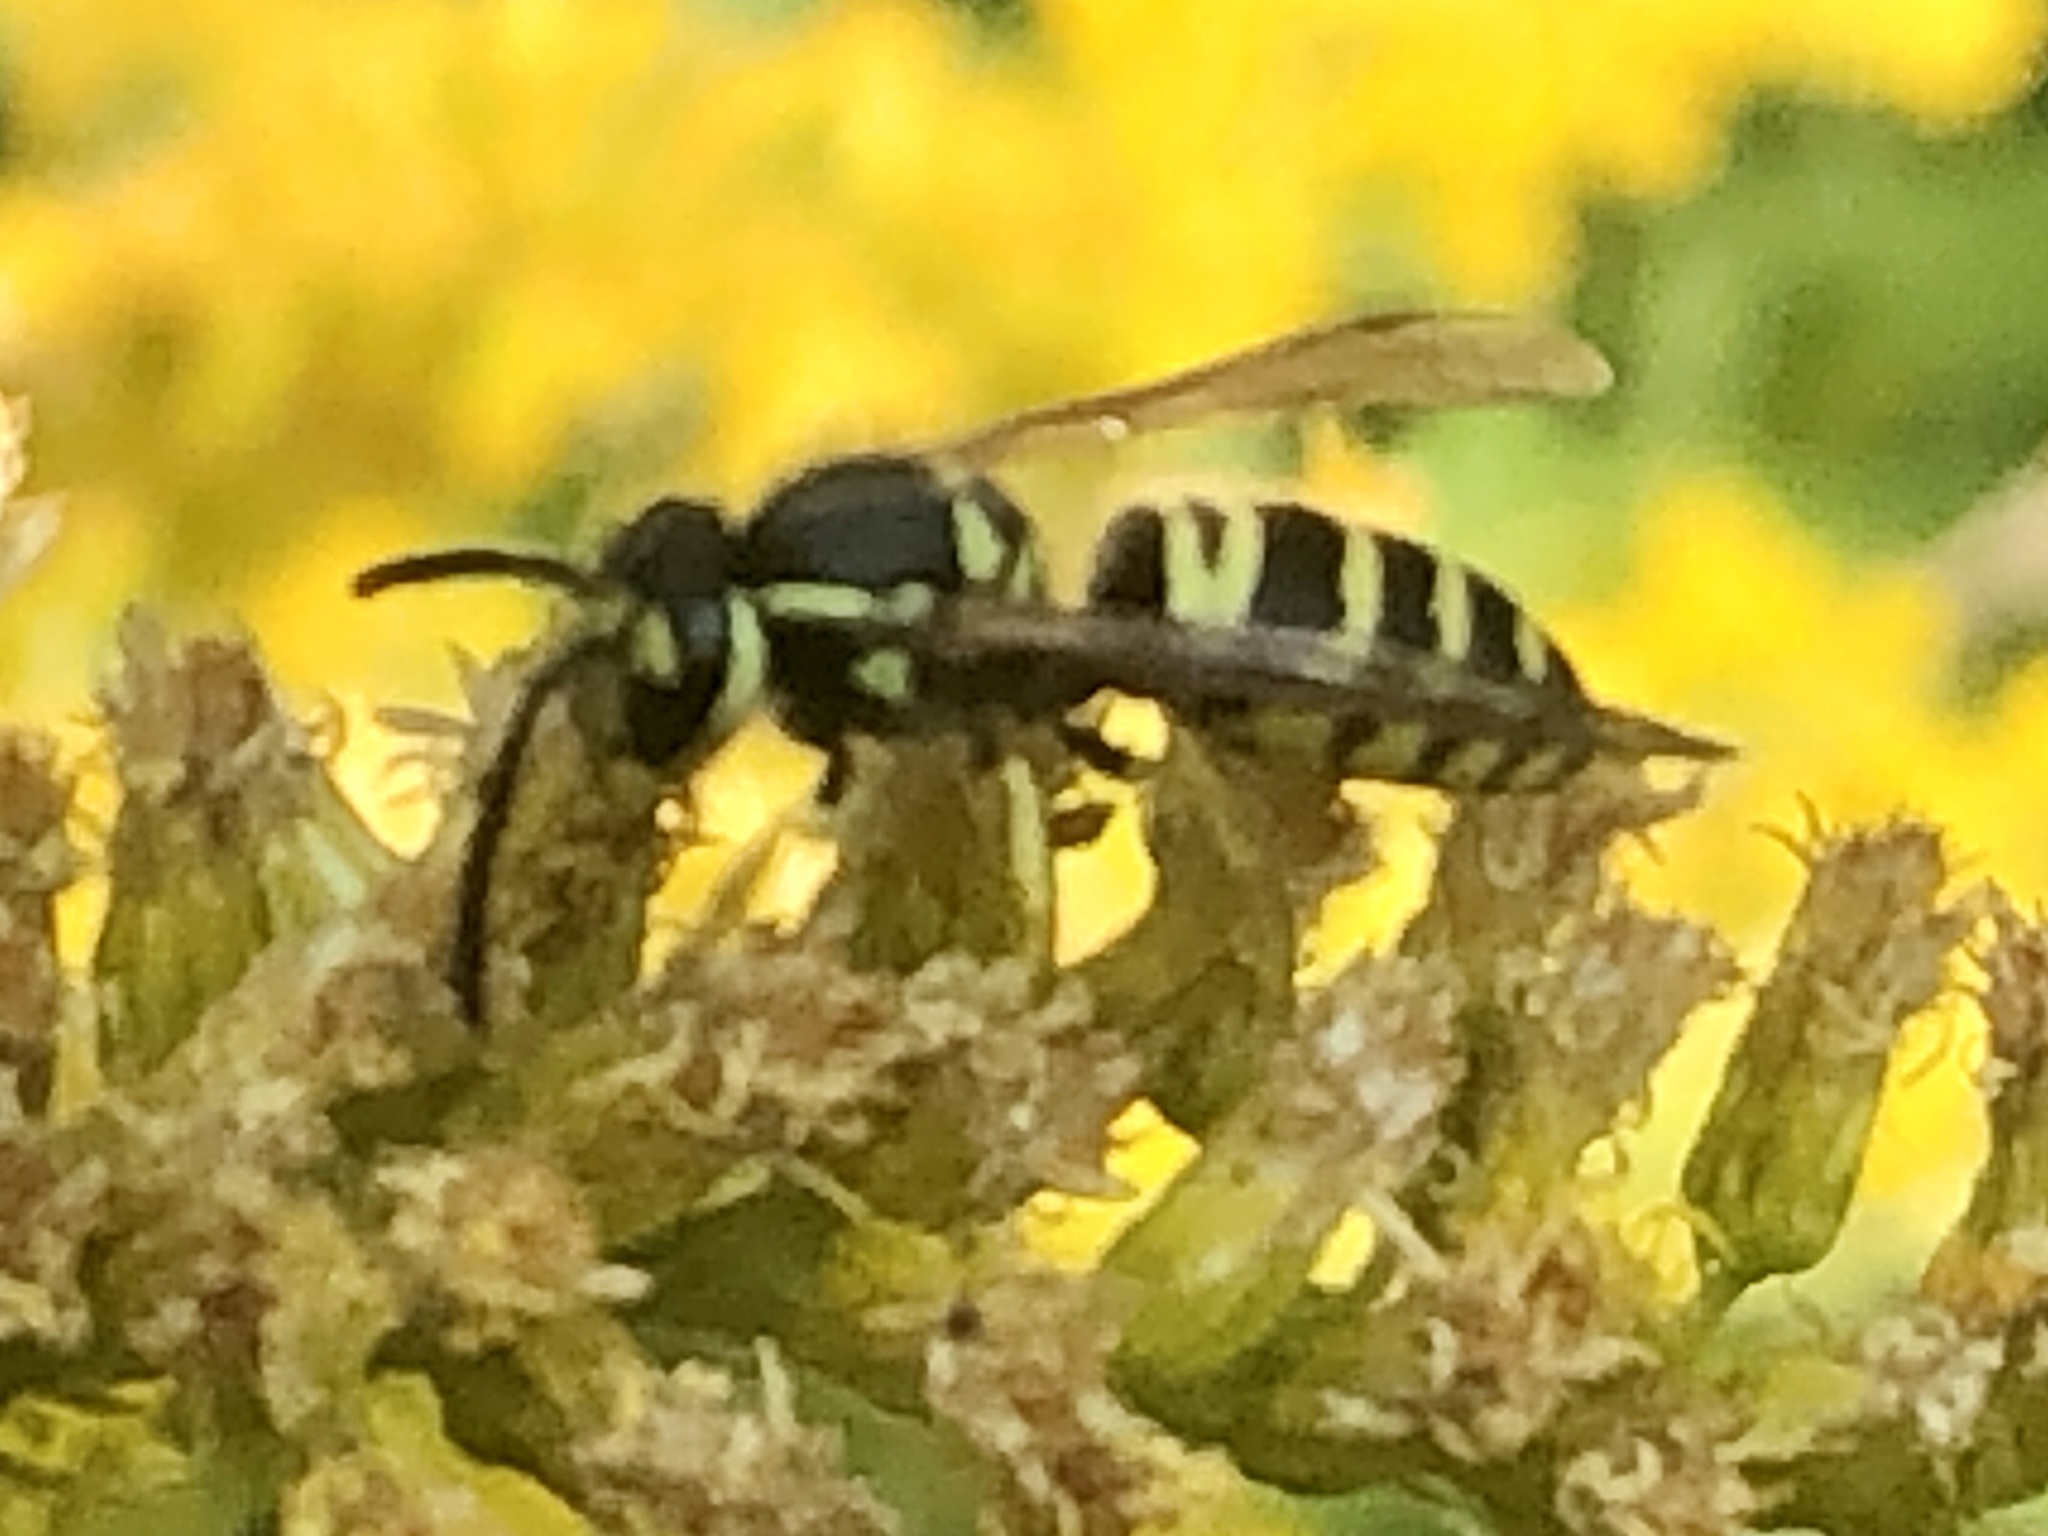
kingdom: Animalia
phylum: Arthropoda
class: Insecta
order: Hymenoptera
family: Vespidae
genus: Vespula
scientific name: Vespula maculifrons
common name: Eastern yellowjacket
